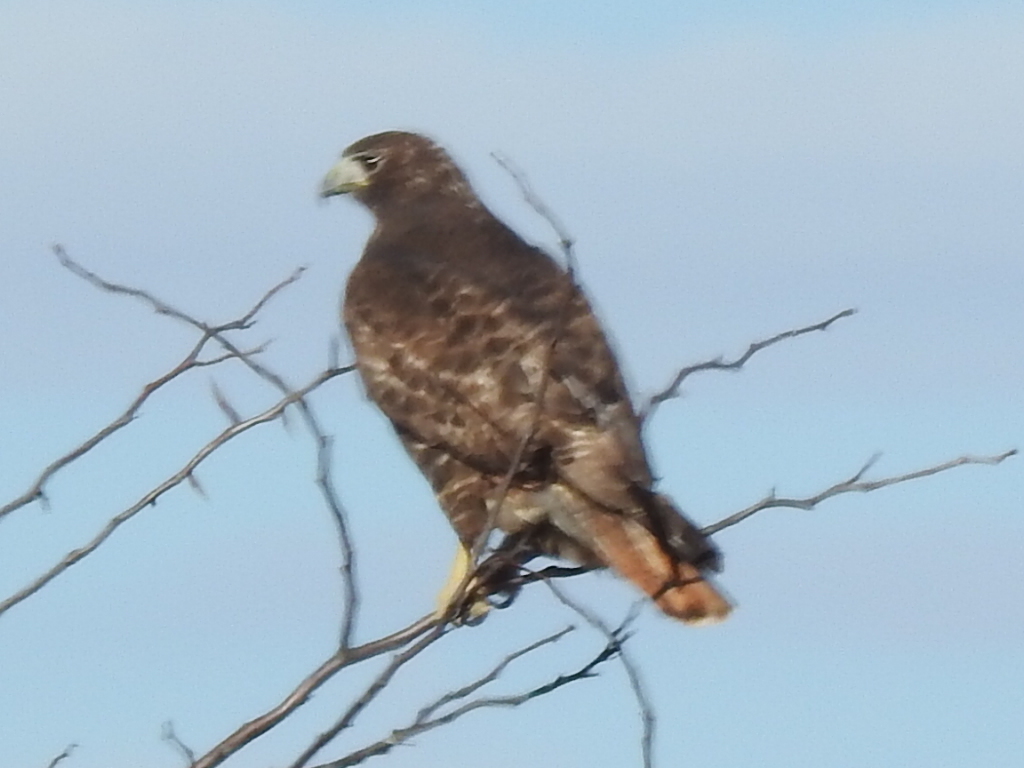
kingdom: Animalia
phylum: Chordata
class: Aves
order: Accipitriformes
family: Accipitridae
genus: Buteo
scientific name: Buteo jamaicensis
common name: Red-tailed hawk
